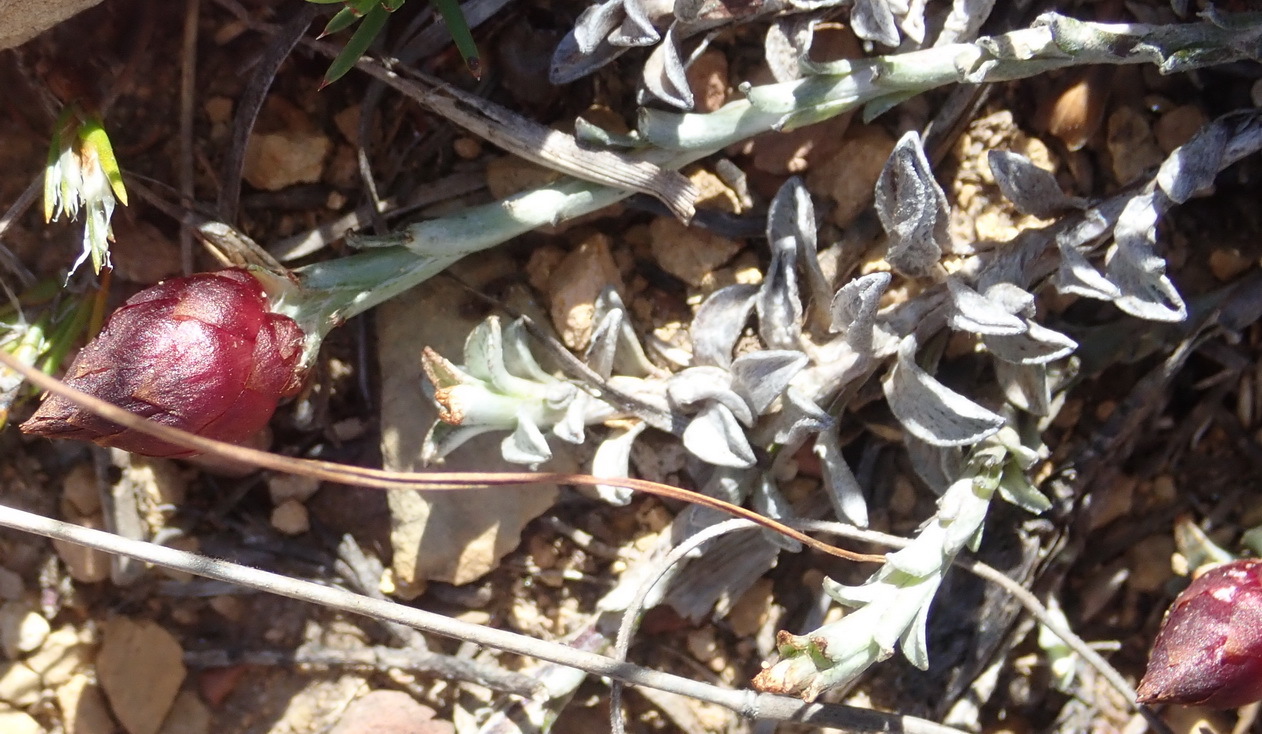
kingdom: Plantae
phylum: Tracheophyta
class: Magnoliopsida
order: Asterales
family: Asteraceae
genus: Syncarpha
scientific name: Syncarpha canescens
